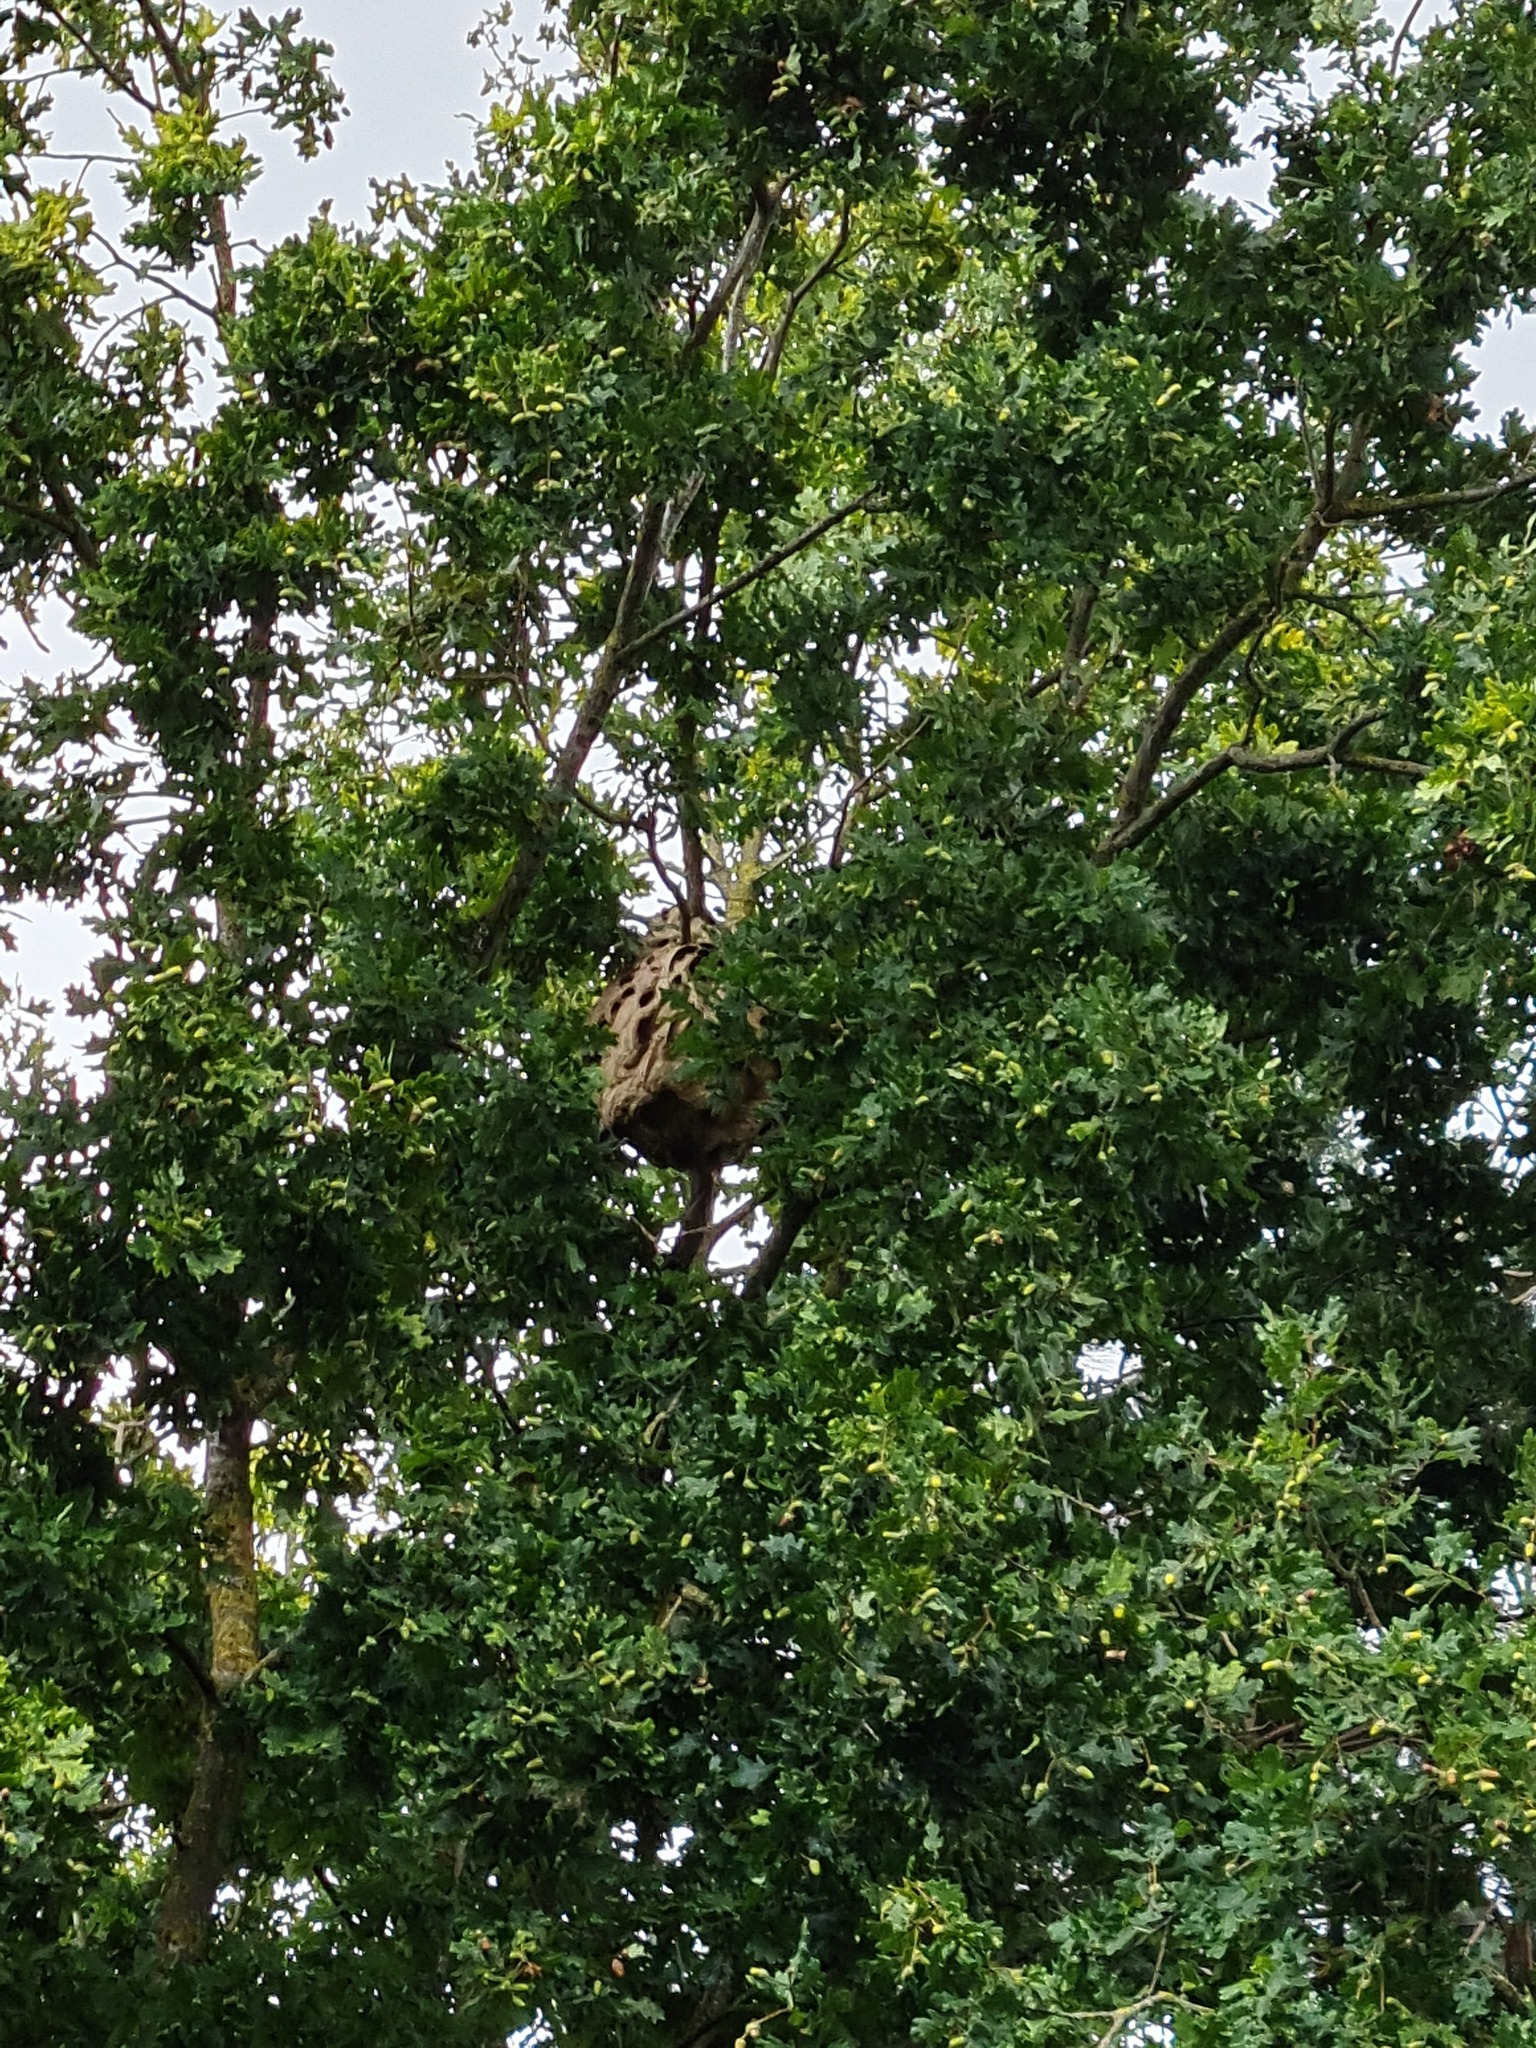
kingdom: Animalia
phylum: Arthropoda
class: Insecta
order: Hymenoptera
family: Vespidae
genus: Vespa
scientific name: Vespa velutina
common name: Asian hornet
